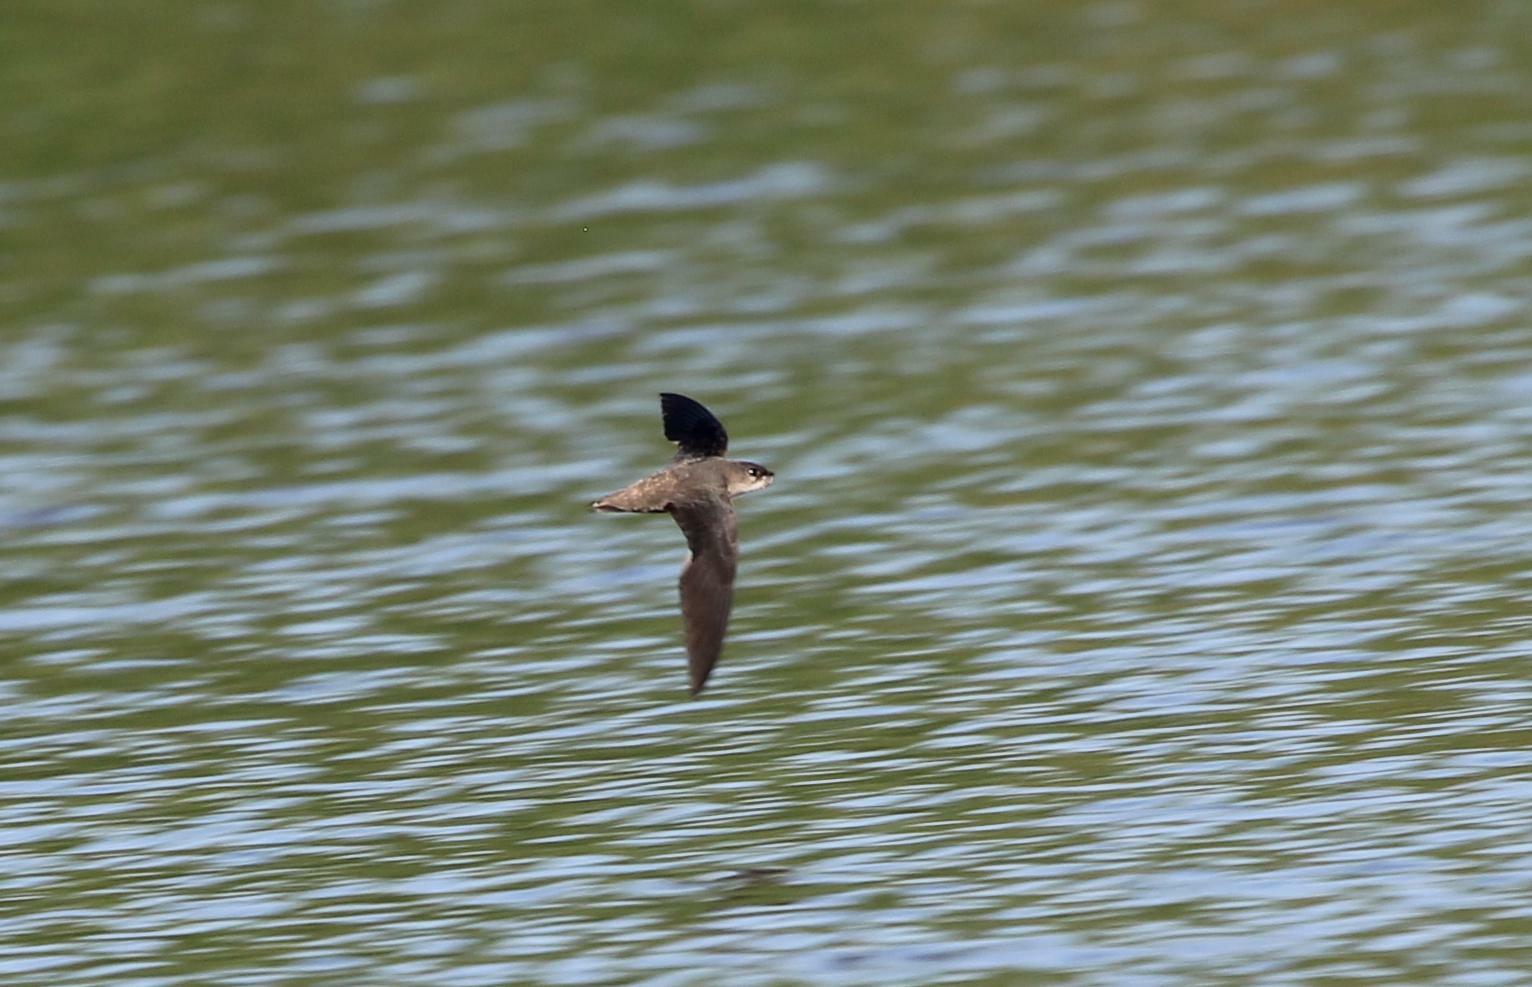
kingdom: Animalia
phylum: Chordata
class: Aves
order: Apodiformes
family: Apodidae
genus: Chaetura
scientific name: Chaetura pelagica
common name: Chimney swift
